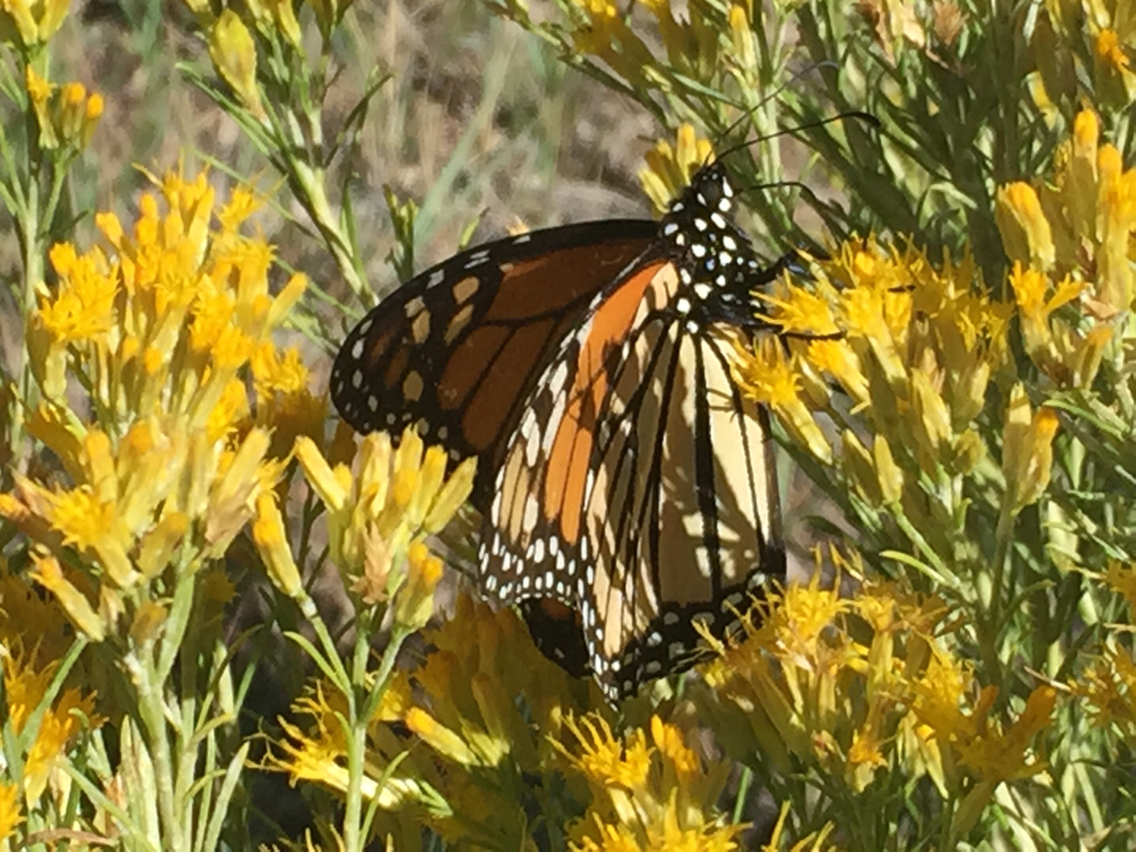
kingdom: Animalia
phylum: Arthropoda
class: Insecta
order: Lepidoptera
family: Nymphalidae
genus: Danaus
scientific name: Danaus plexippus
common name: Monarch
